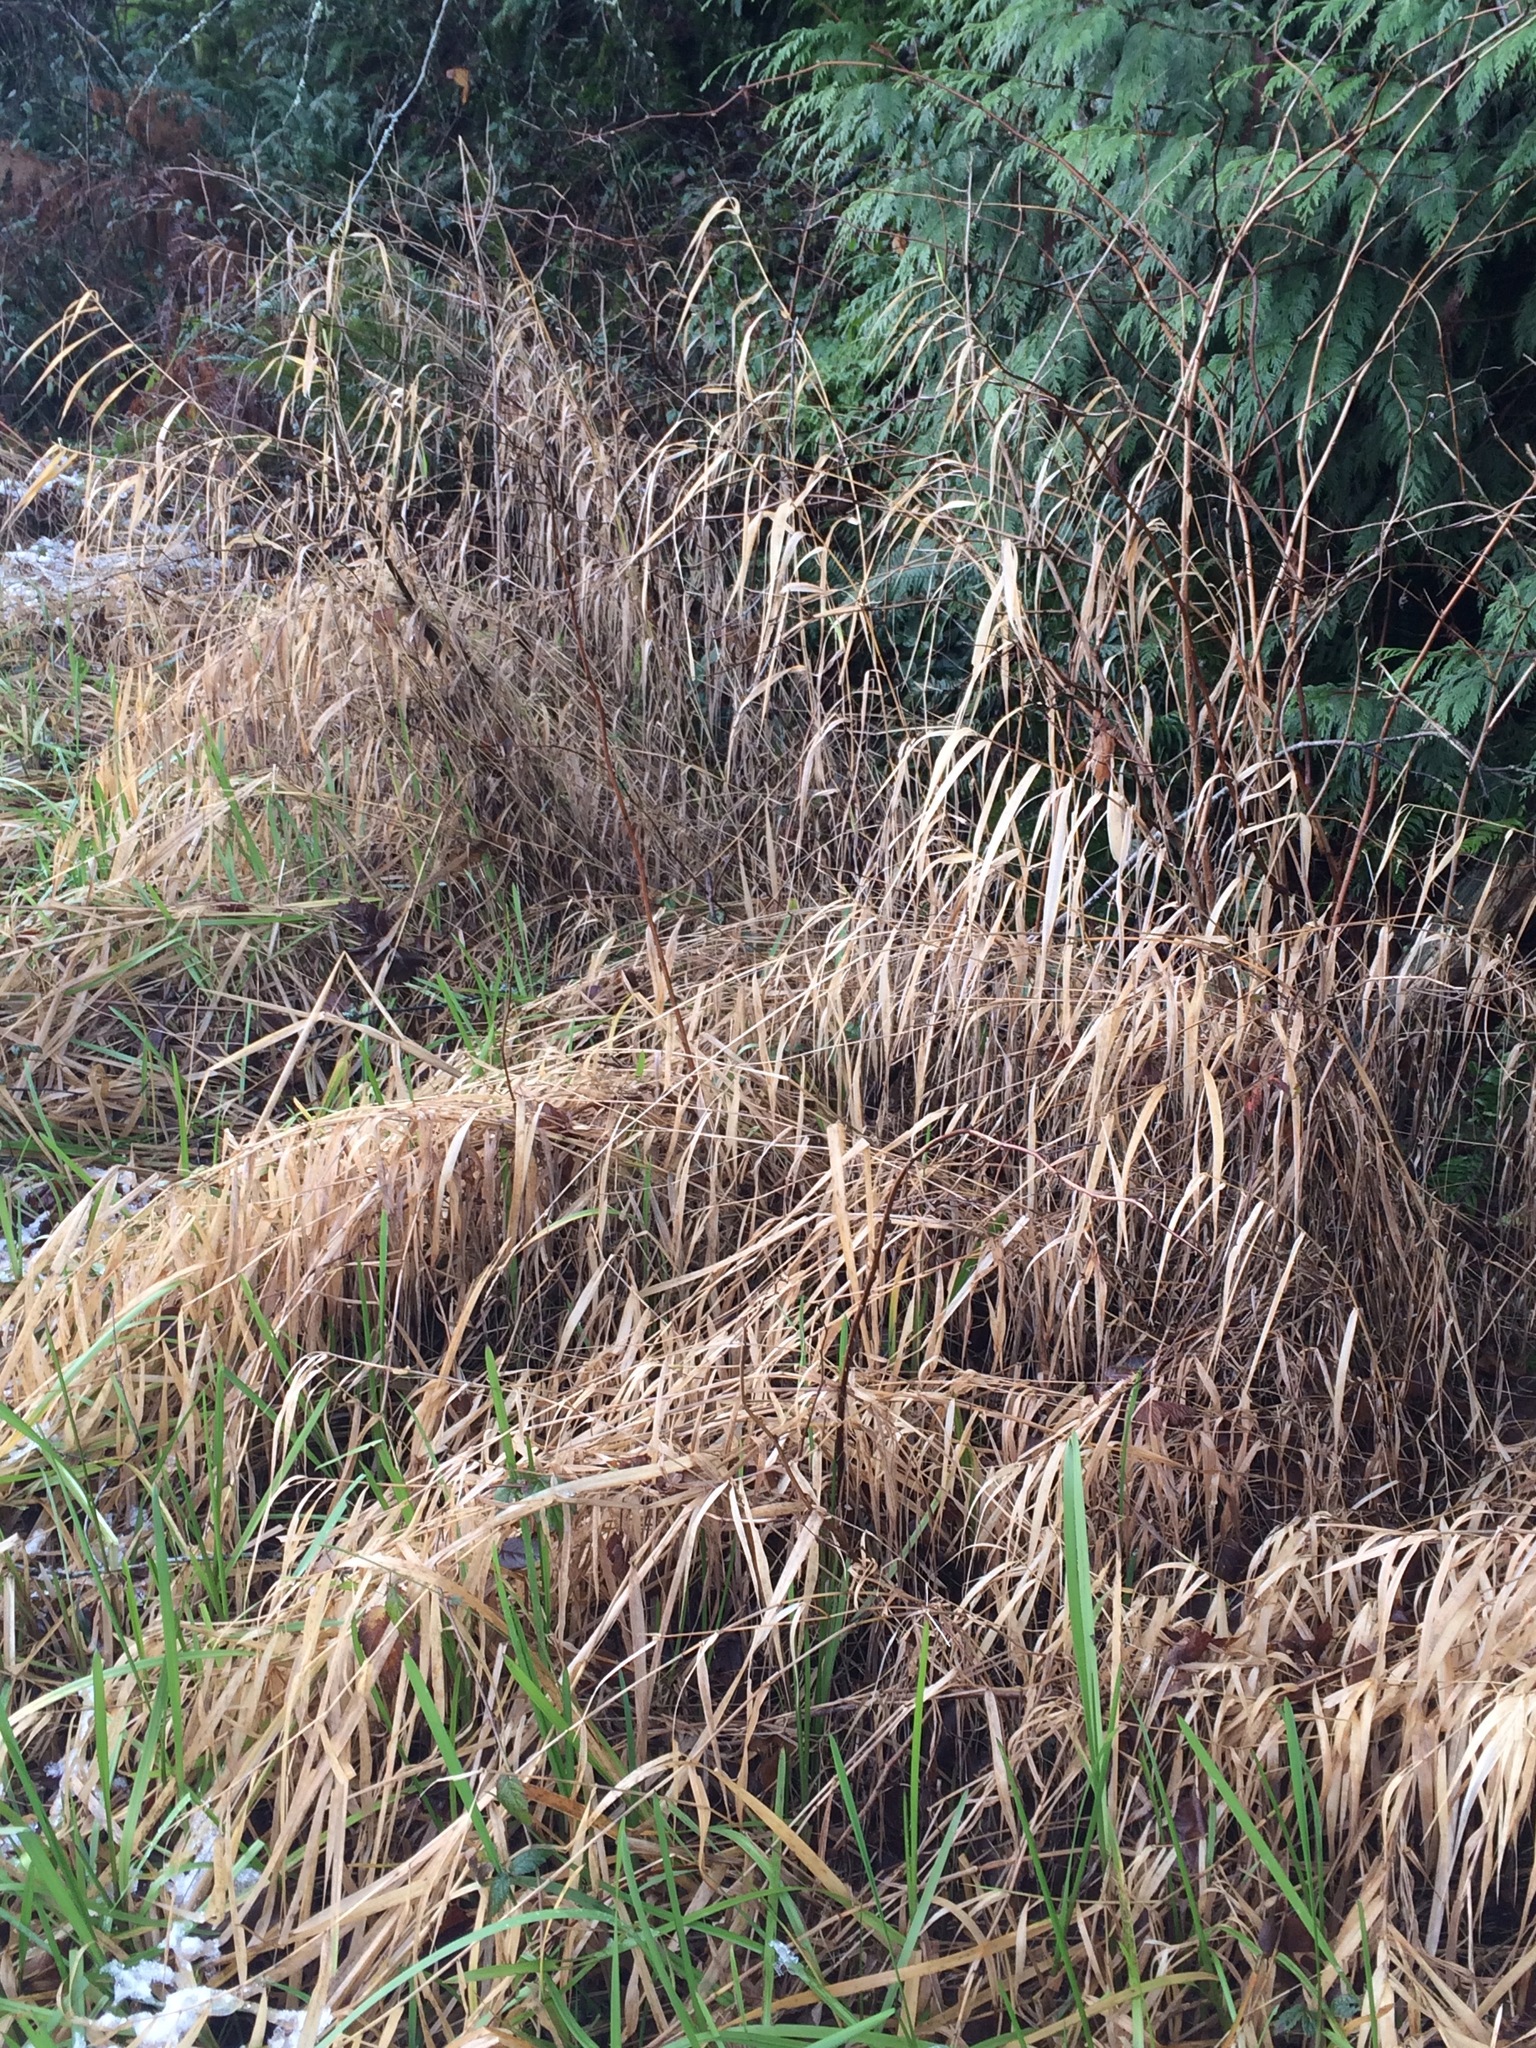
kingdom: Plantae
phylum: Tracheophyta
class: Liliopsida
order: Poales
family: Poaceae
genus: Phalaris
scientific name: Phalaris arundinacea
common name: Reed canary-grass
